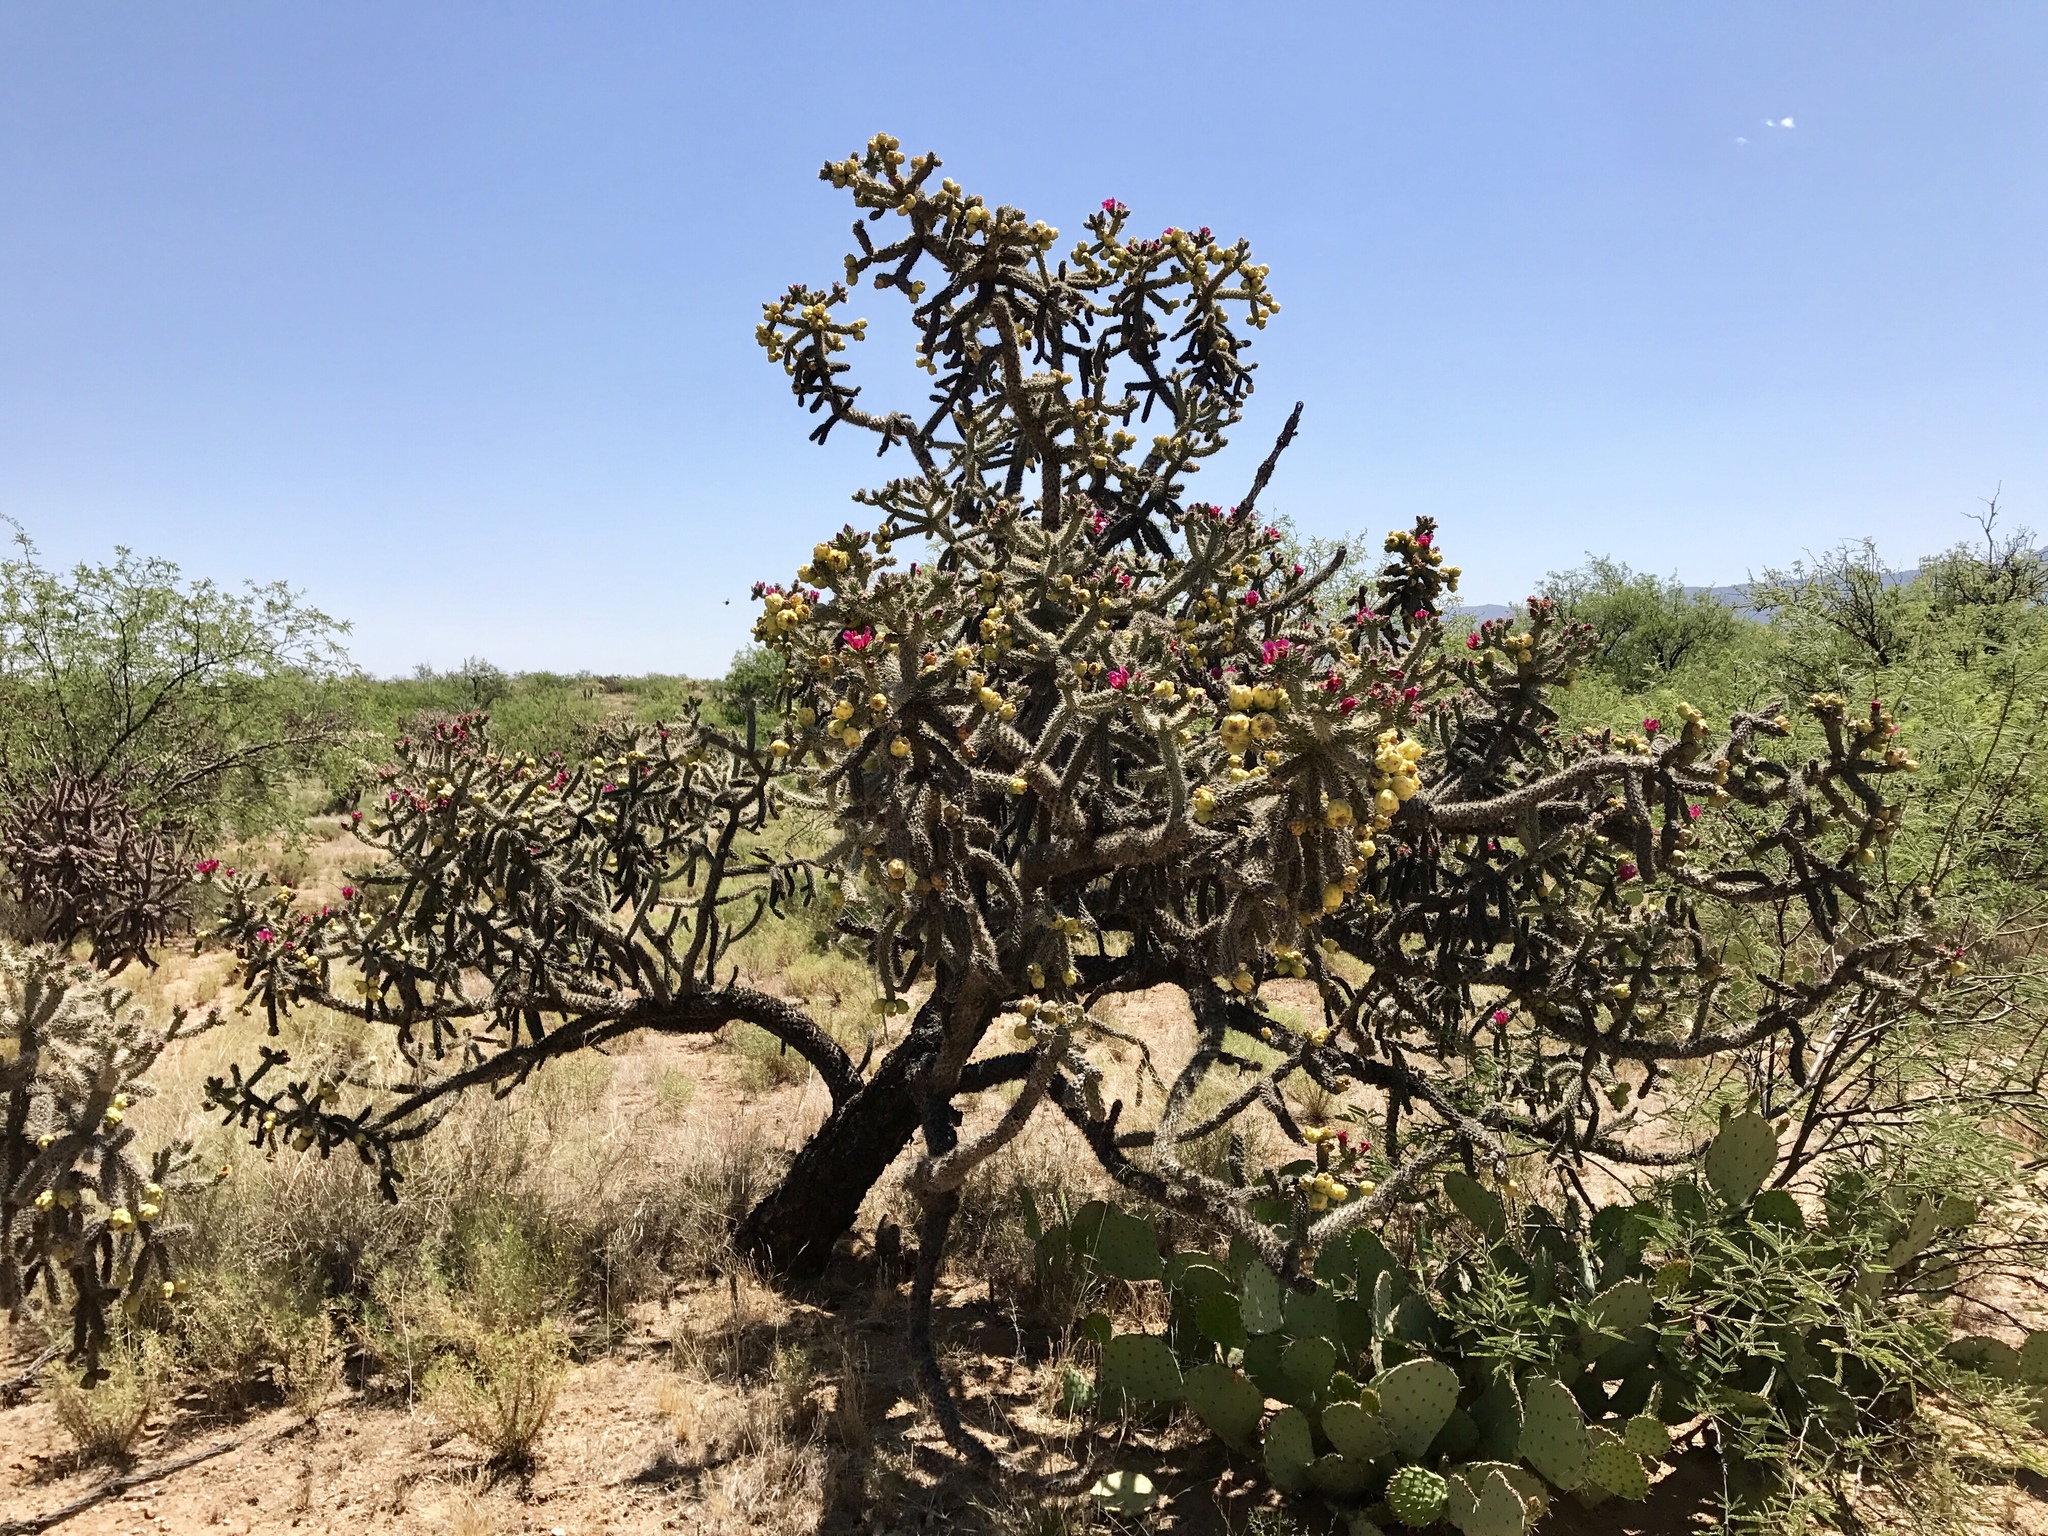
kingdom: Plantae
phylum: Tracheophyta
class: Magnoliopsida
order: Caryophyllales
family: Cactaceae
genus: Cylindropuntia
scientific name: Cylindropuntia thurberi
